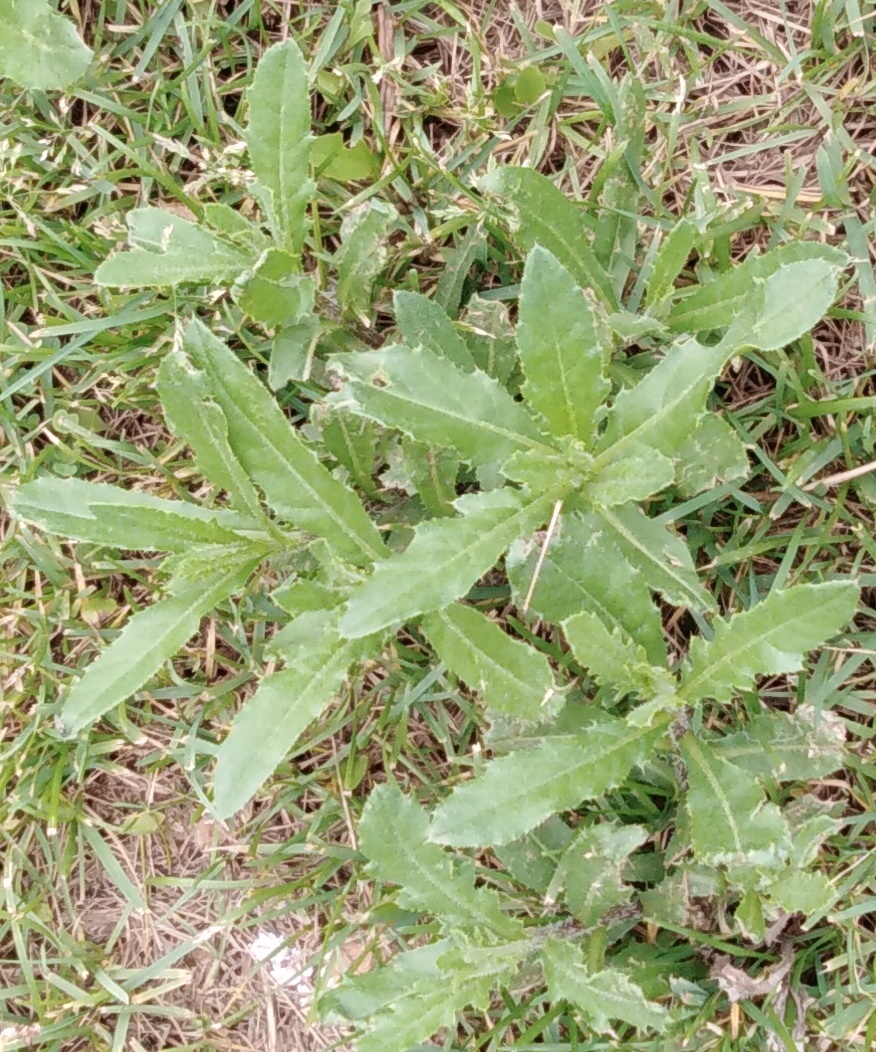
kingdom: Plantae
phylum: Tracheophyta
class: Magnoliopsida
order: Asterales
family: Asteraceae
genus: Cirsium
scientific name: Cirsium arvense
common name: Creeping thistle
